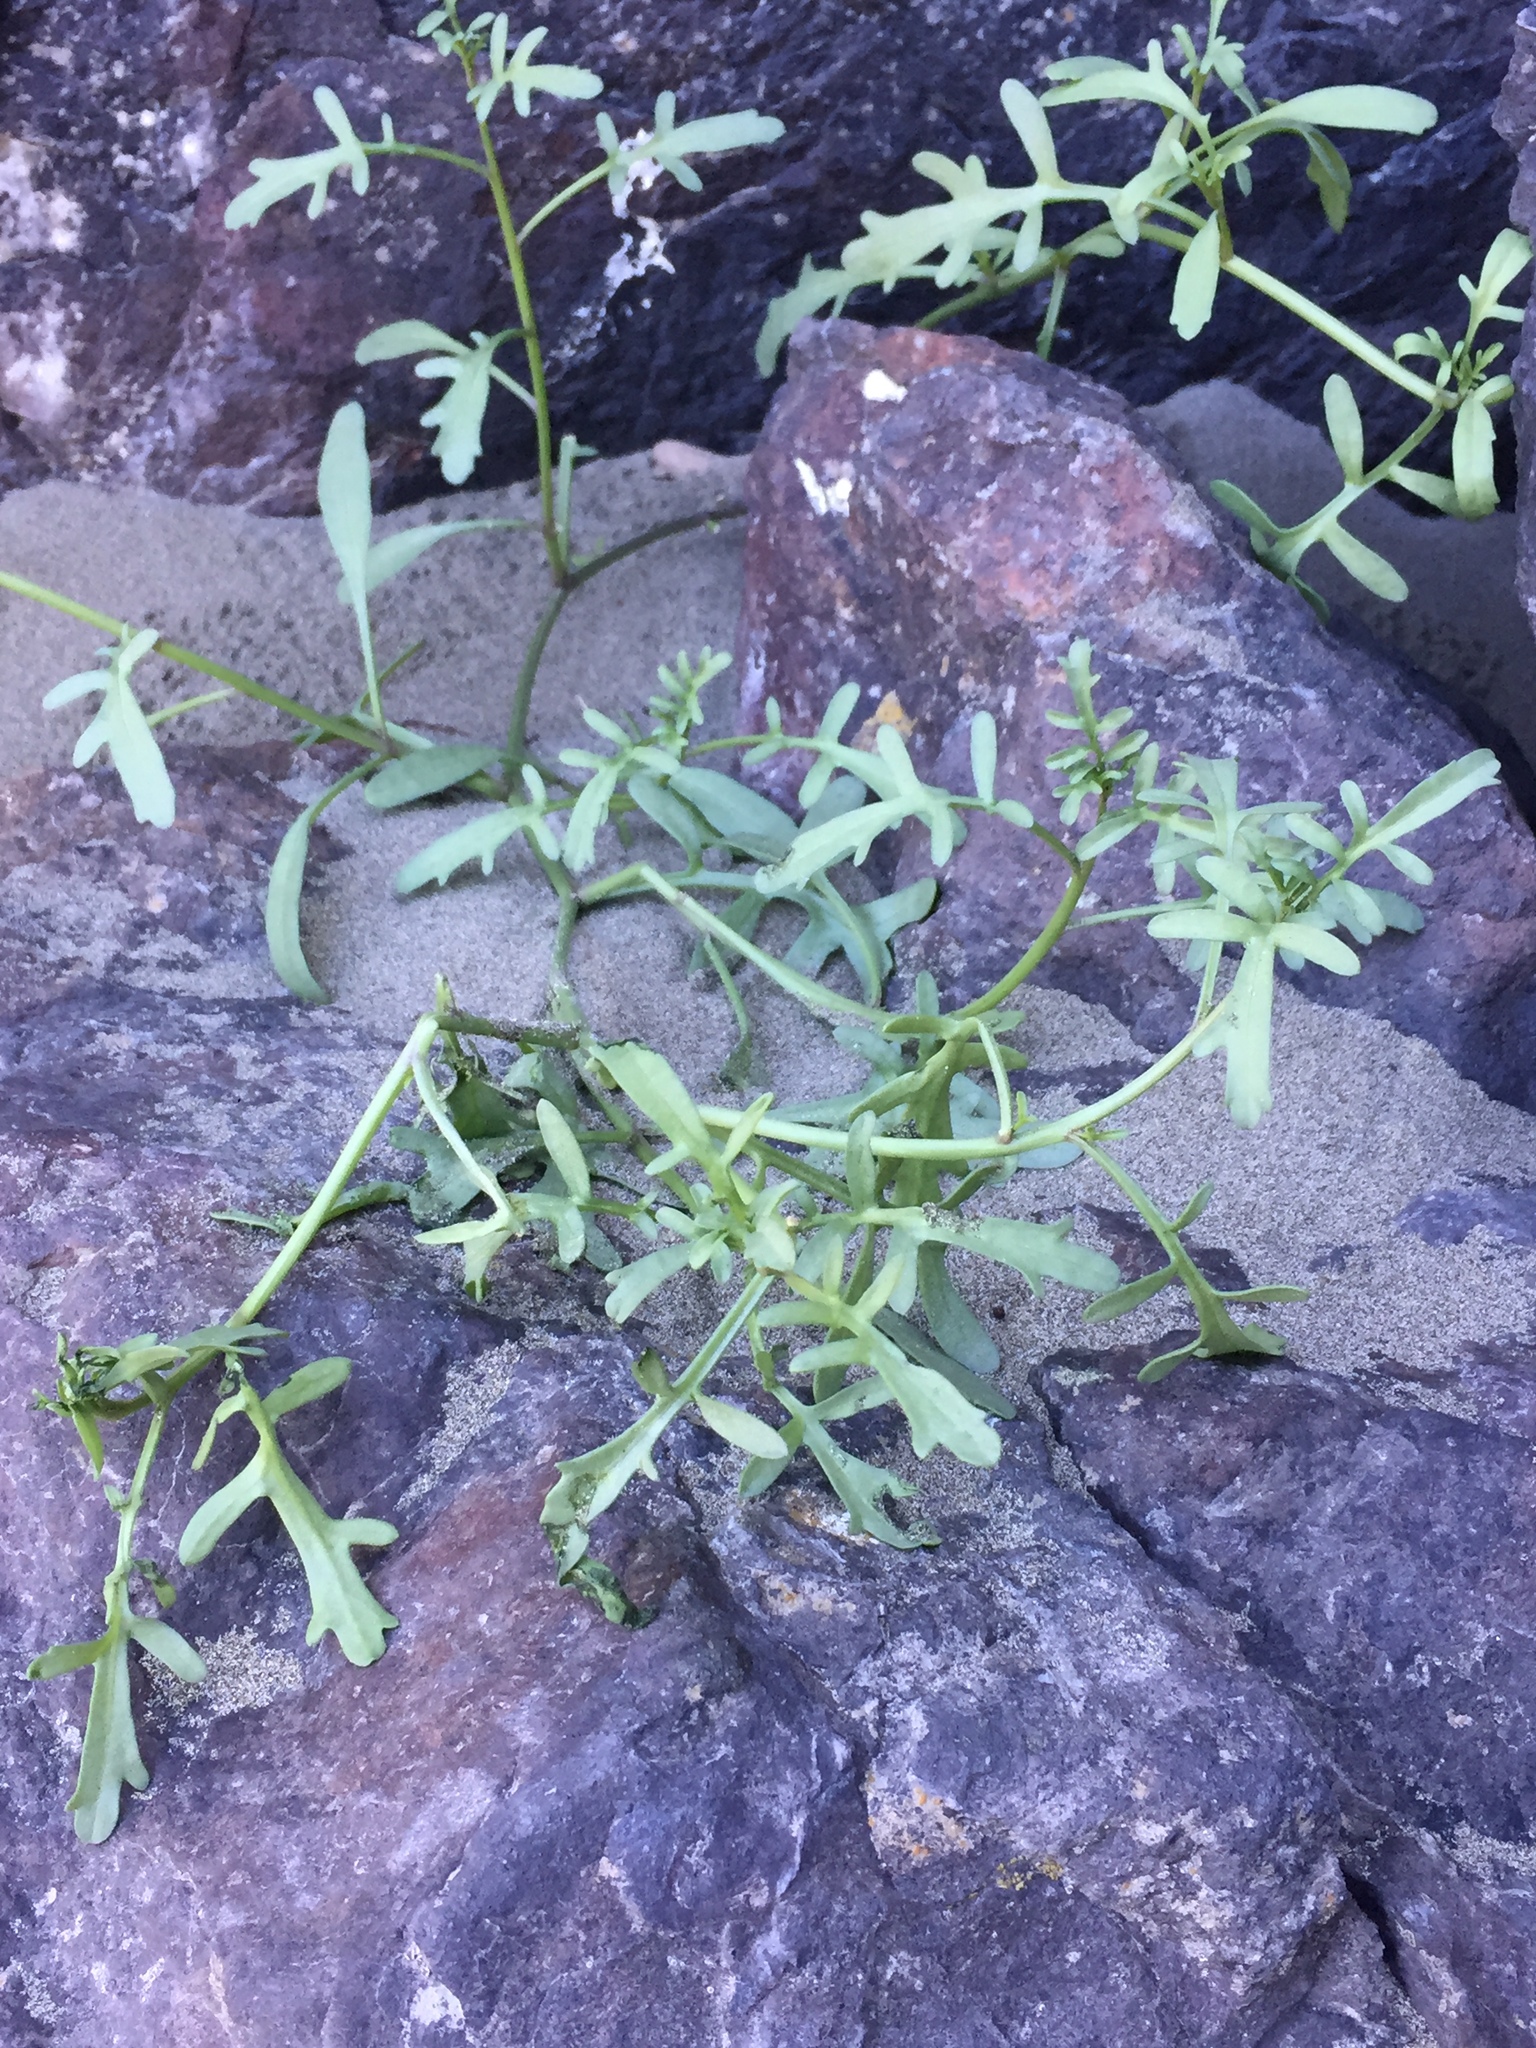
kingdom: Plantae
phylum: Tracheophyta
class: Magnoliopsida
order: Brassicales
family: Brassicaceae
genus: Cakile
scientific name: Cakile maritima
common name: Sea rocket
